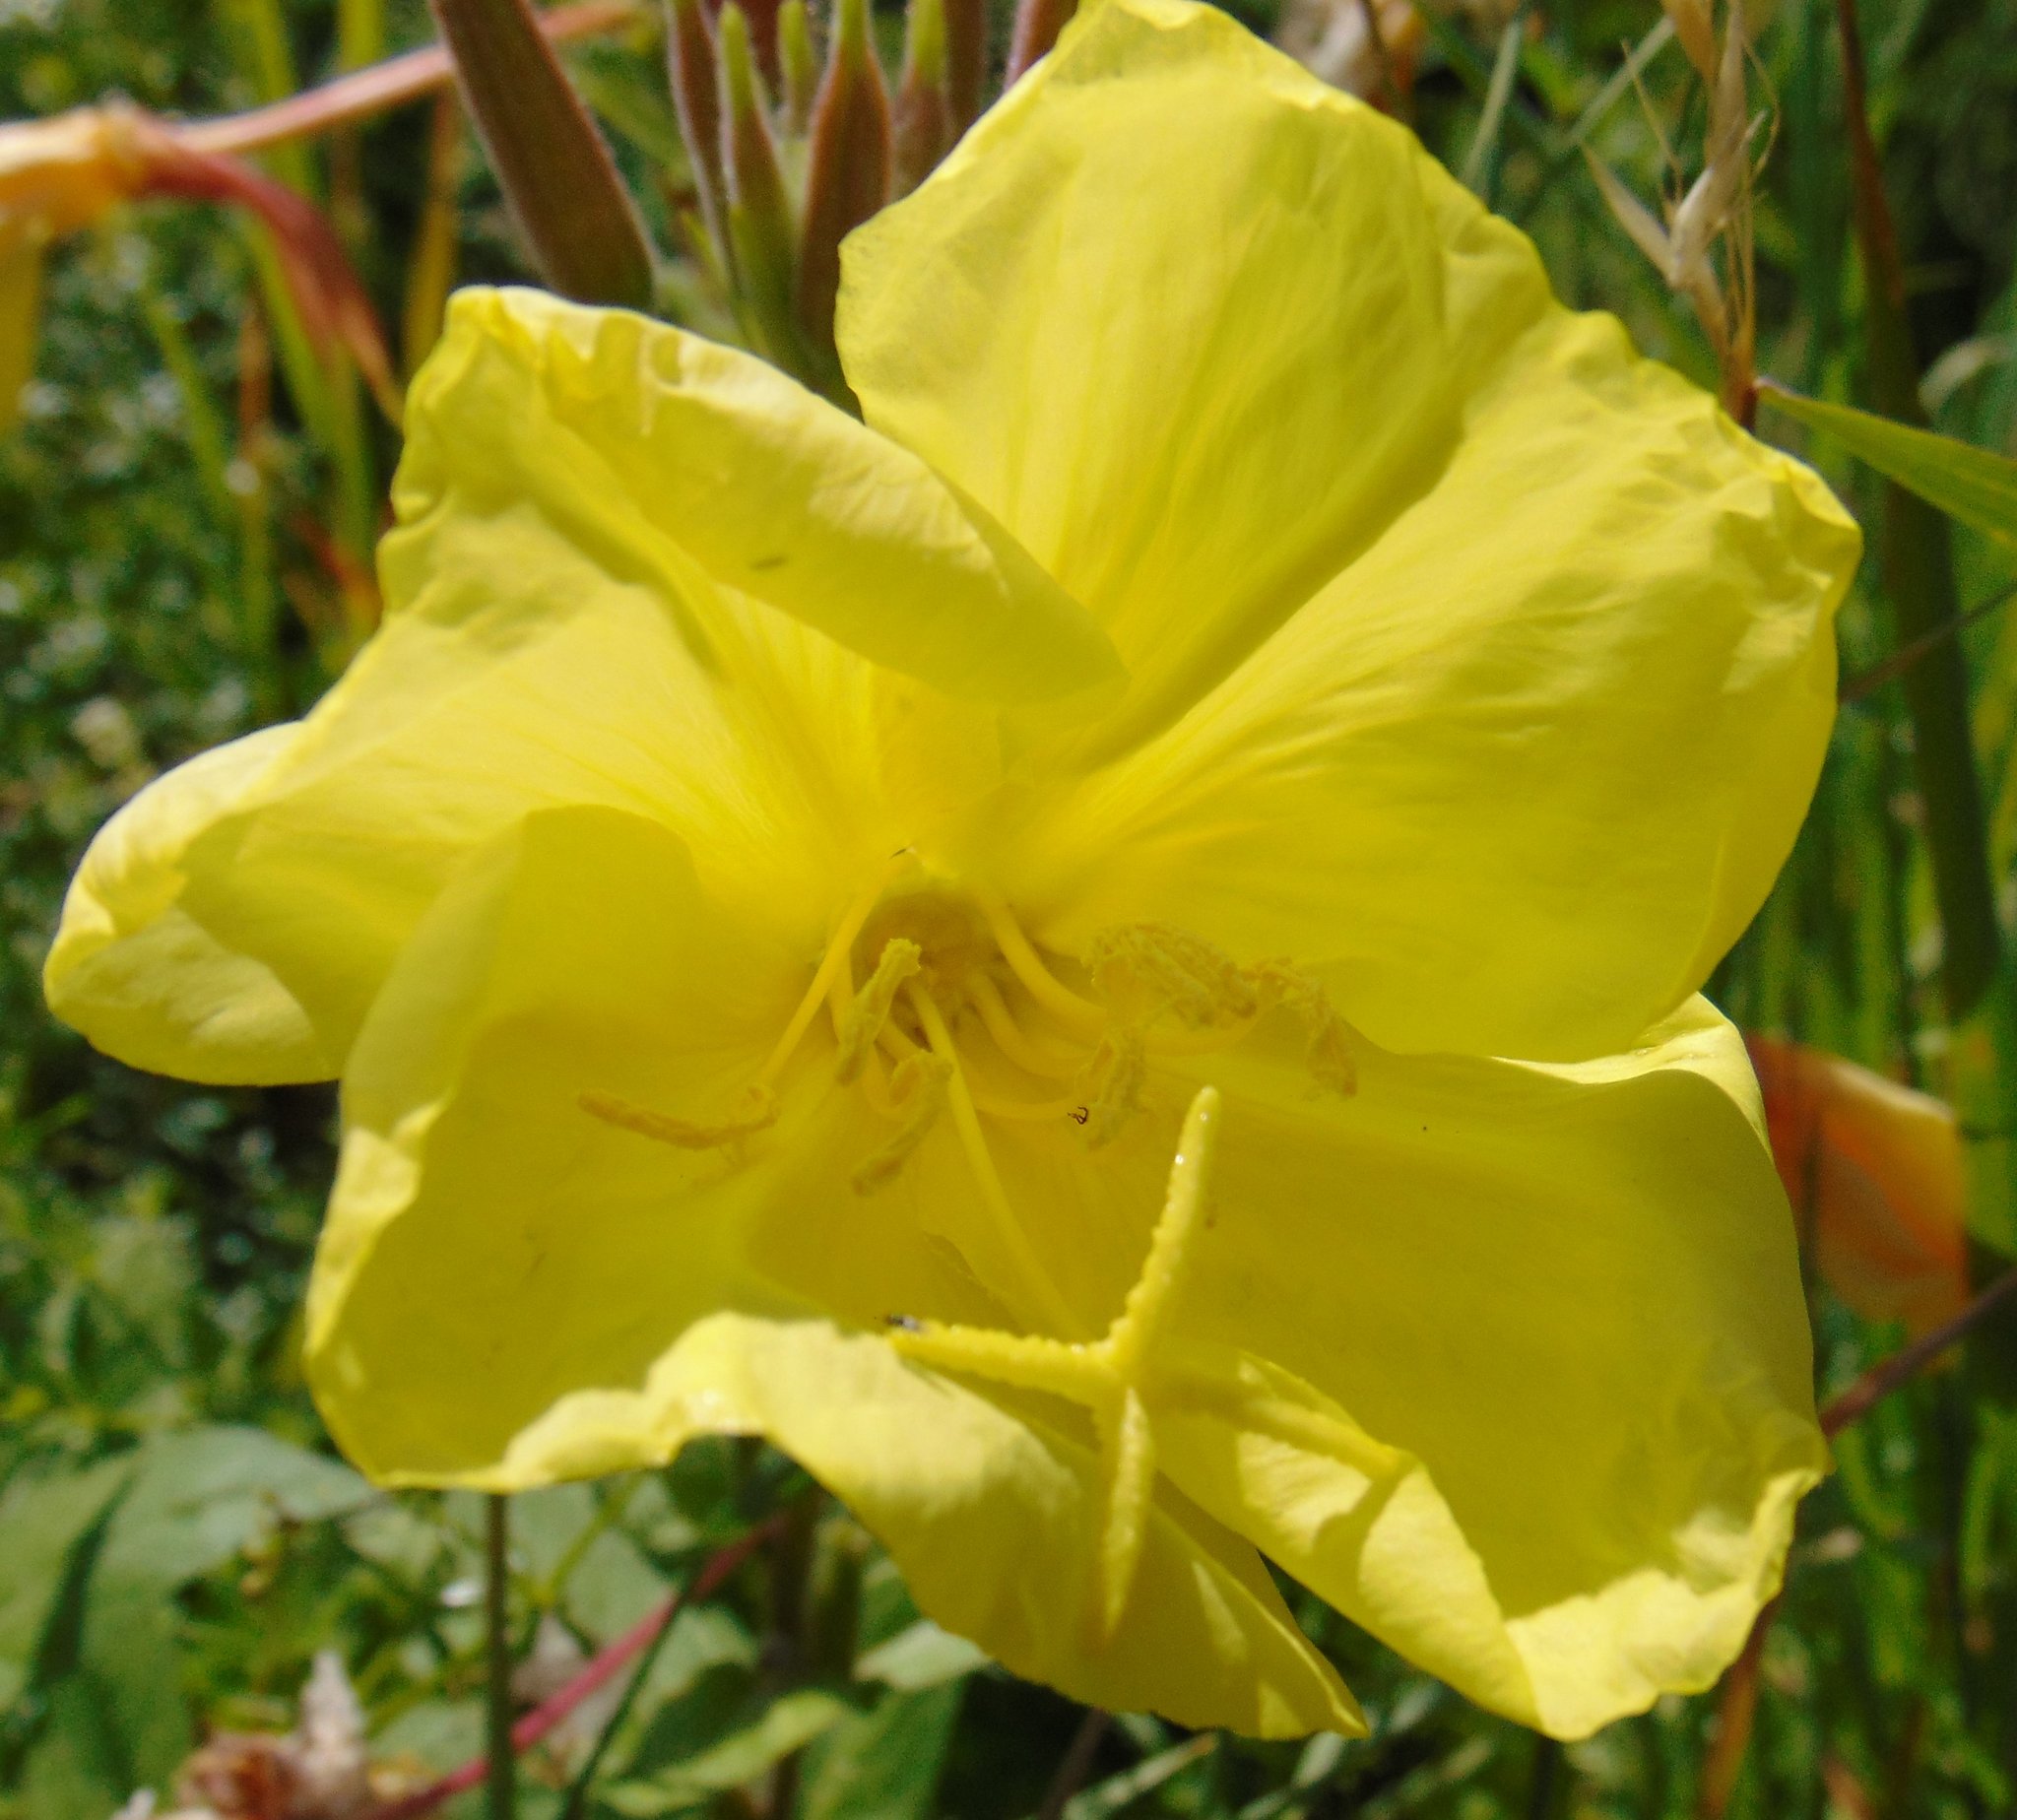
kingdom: Plantae
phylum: Tracheophyta
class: Magnoliopsida
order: Myrtales
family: Onagraceae
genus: Oenothera
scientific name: Oenothera glazioviana
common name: Large-flowered evening-primrose
